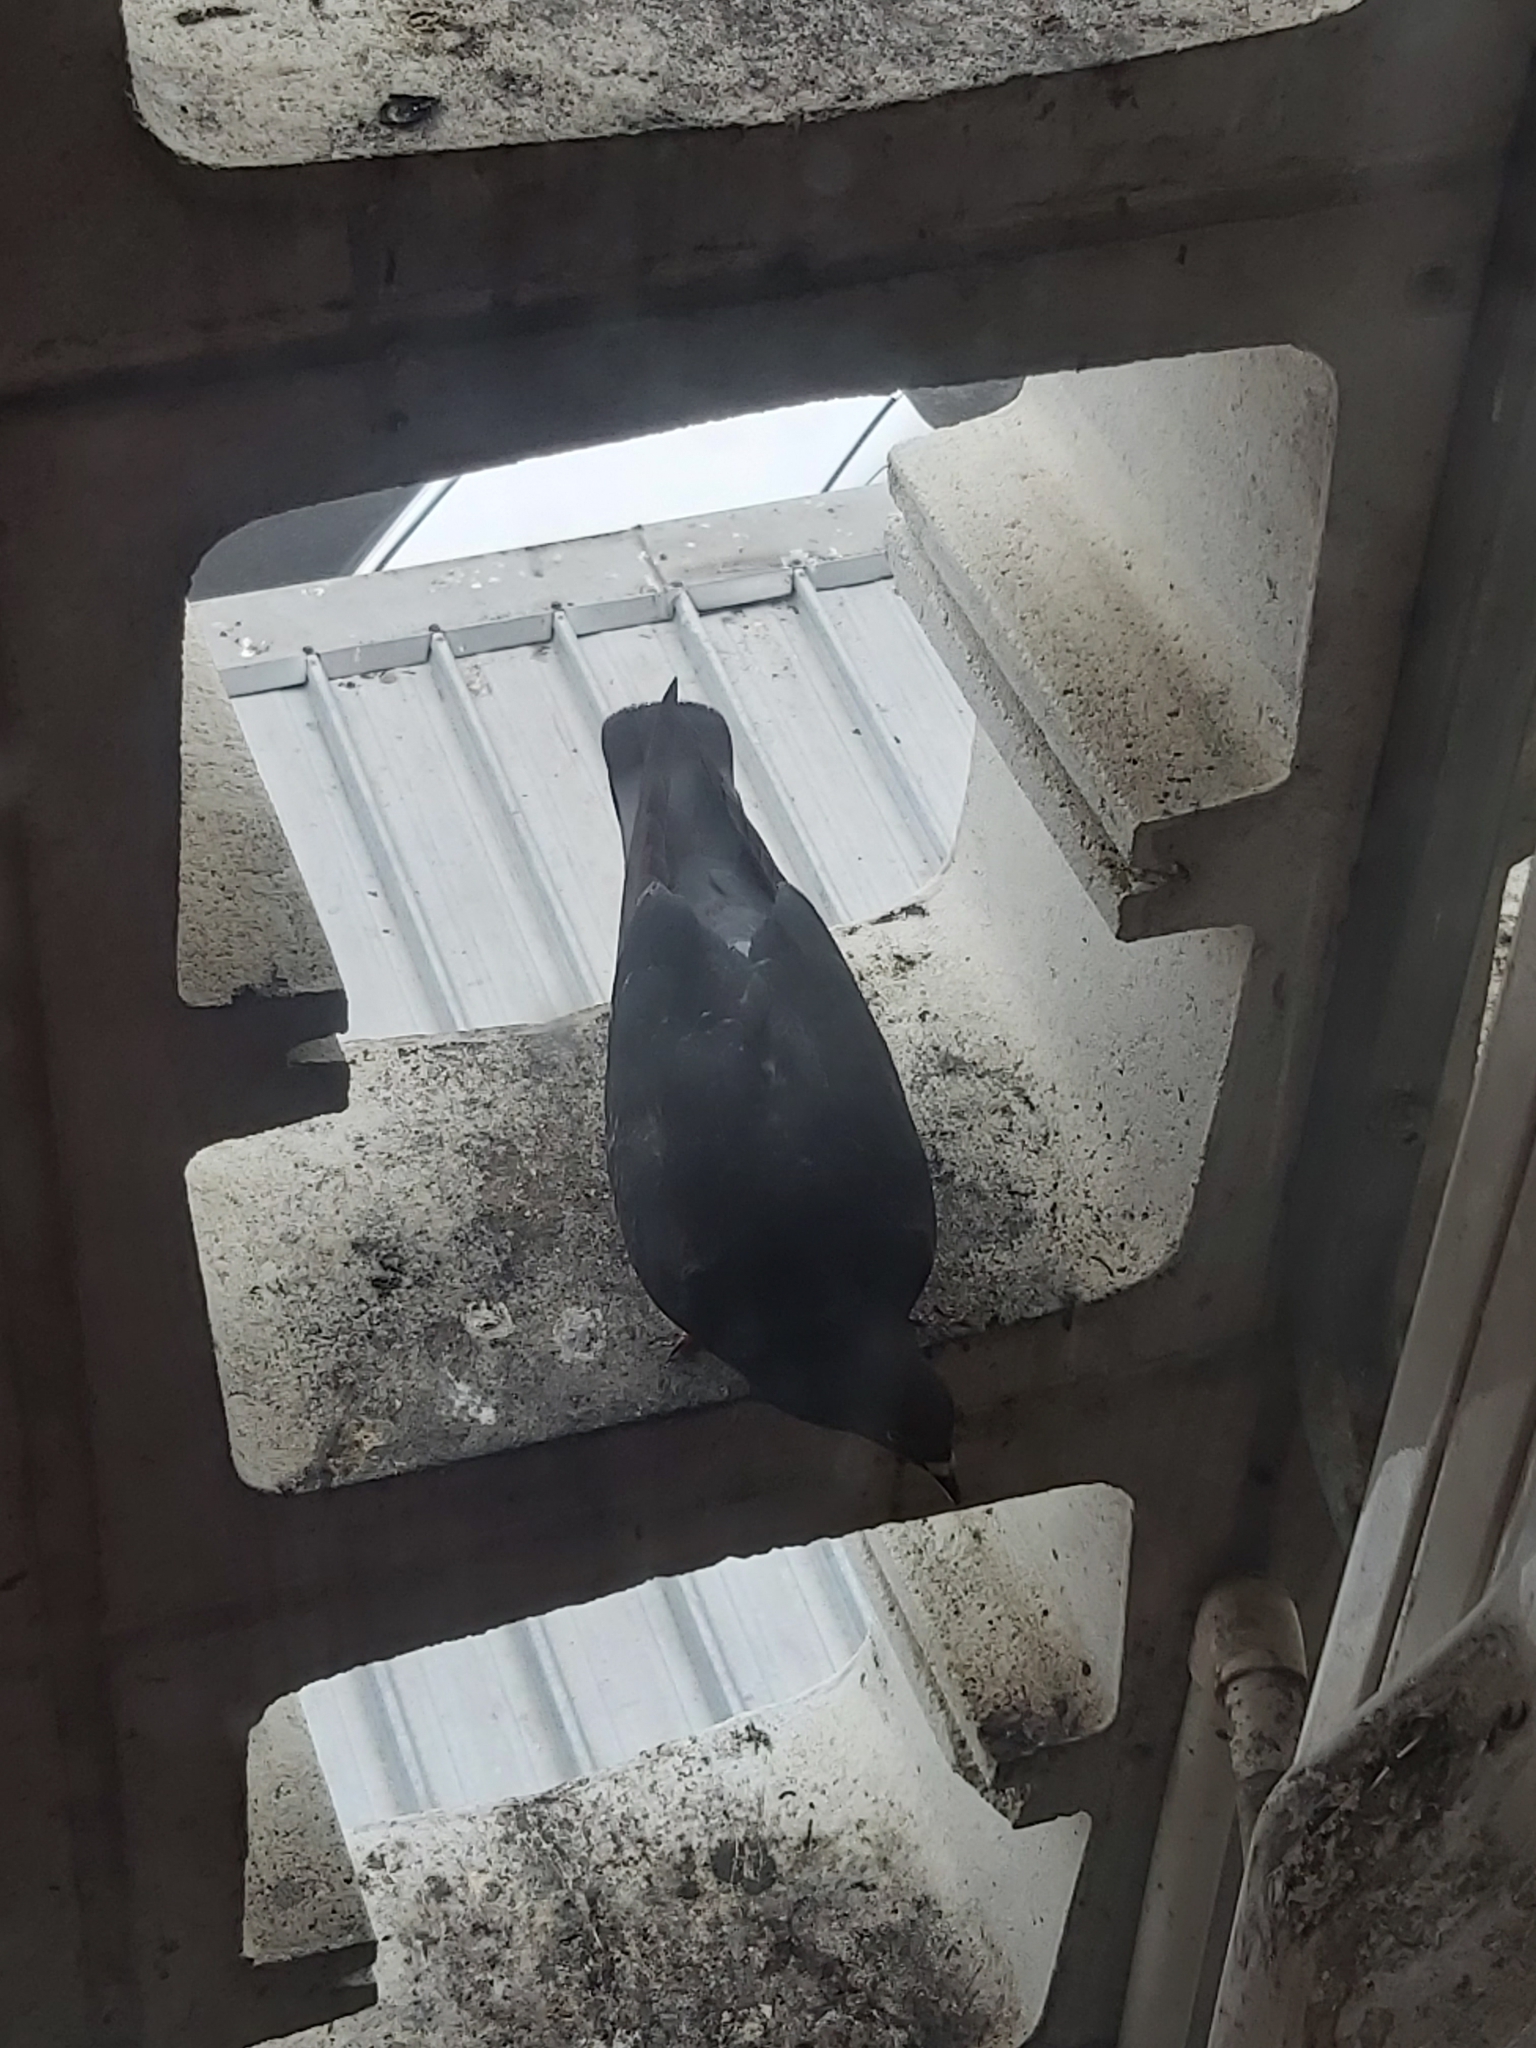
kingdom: Animalia
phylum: Chordata
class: Aves
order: Columbiformes
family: Columbidae
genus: Columba
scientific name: Columba livia
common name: Rock pigeon
